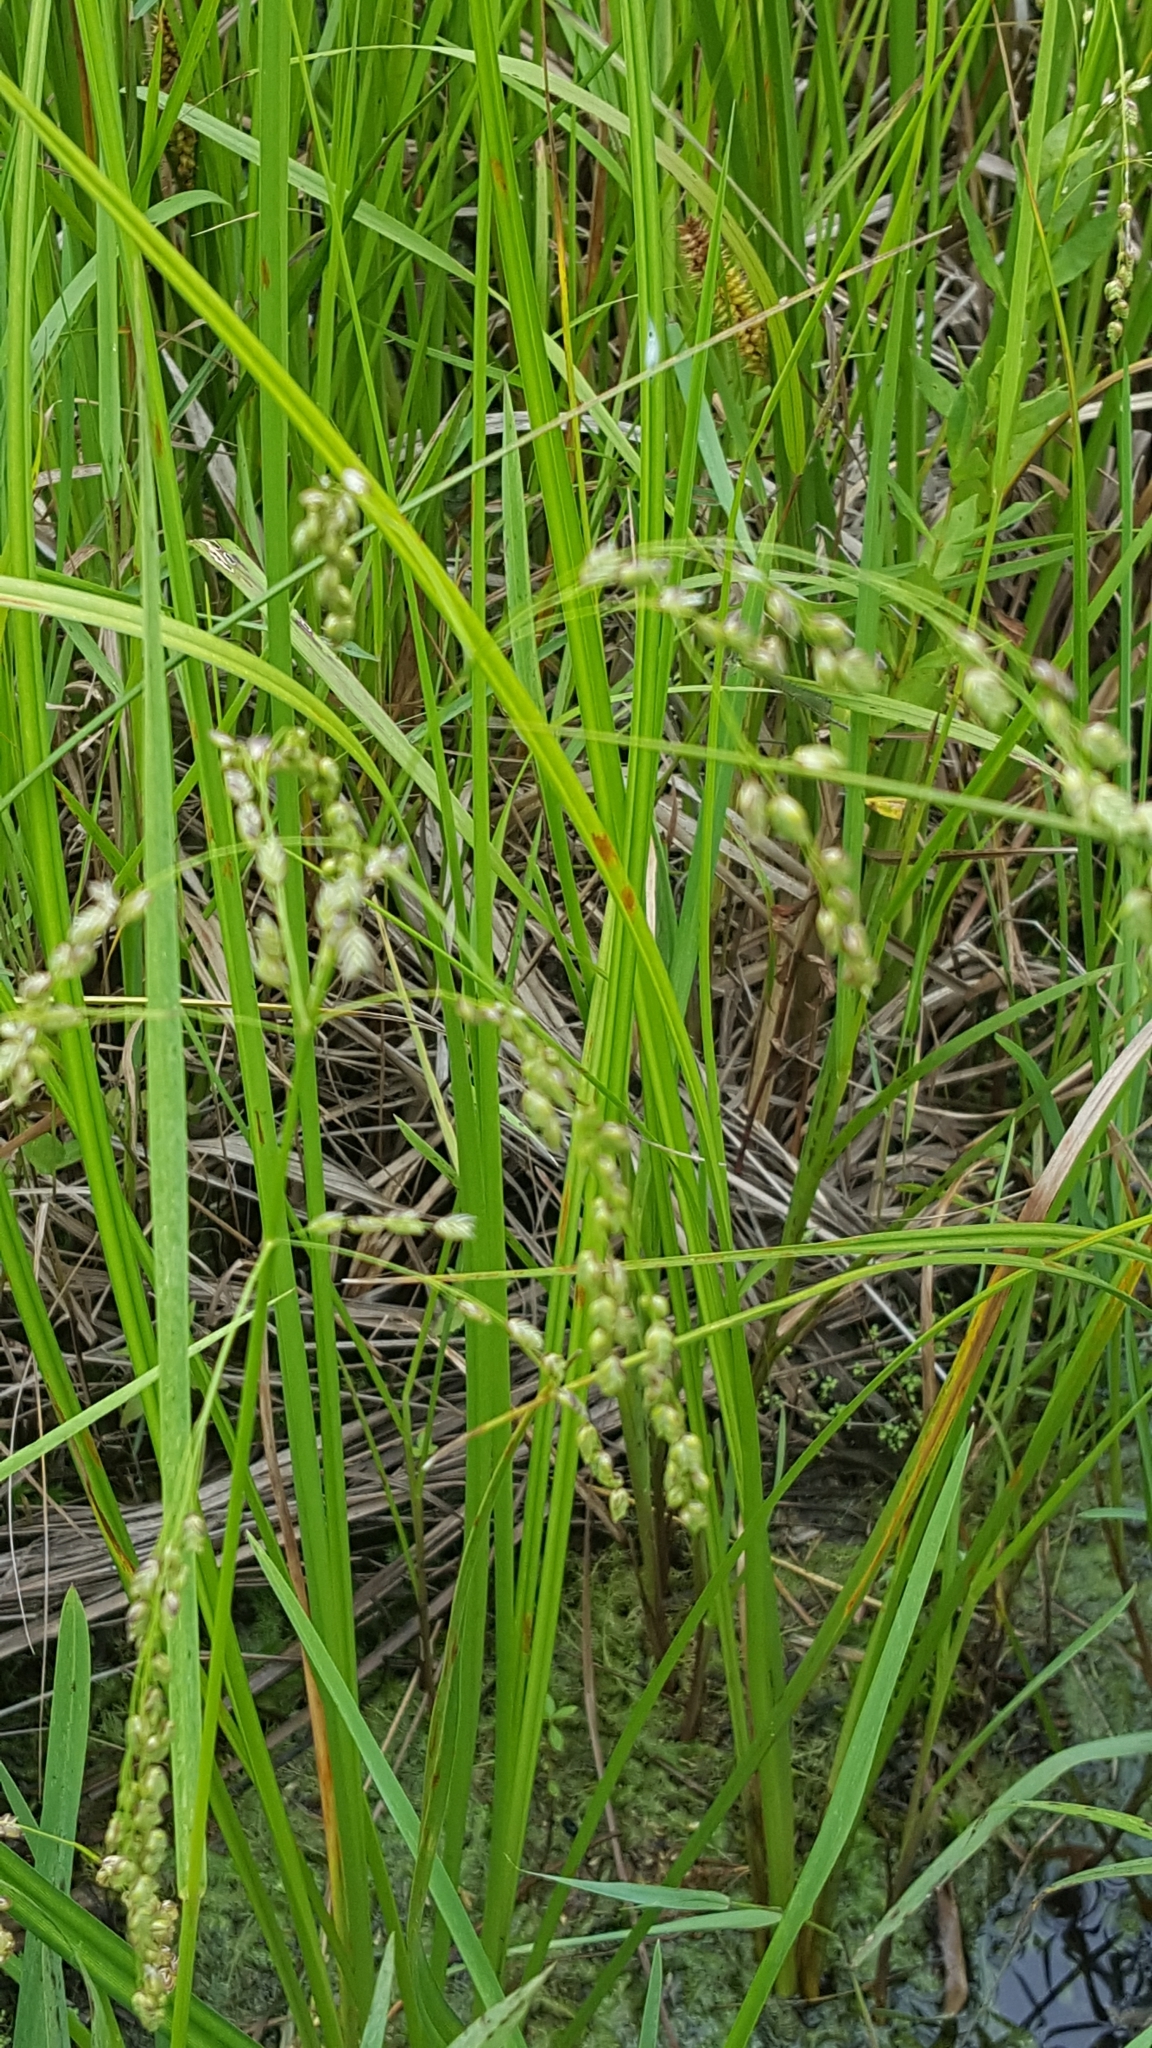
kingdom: Plantae
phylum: Tracheophyta
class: Liliopsida
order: Poales
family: Poaceae
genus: Glyceria
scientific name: Glyceria canadensis
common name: Canada mannagrass
